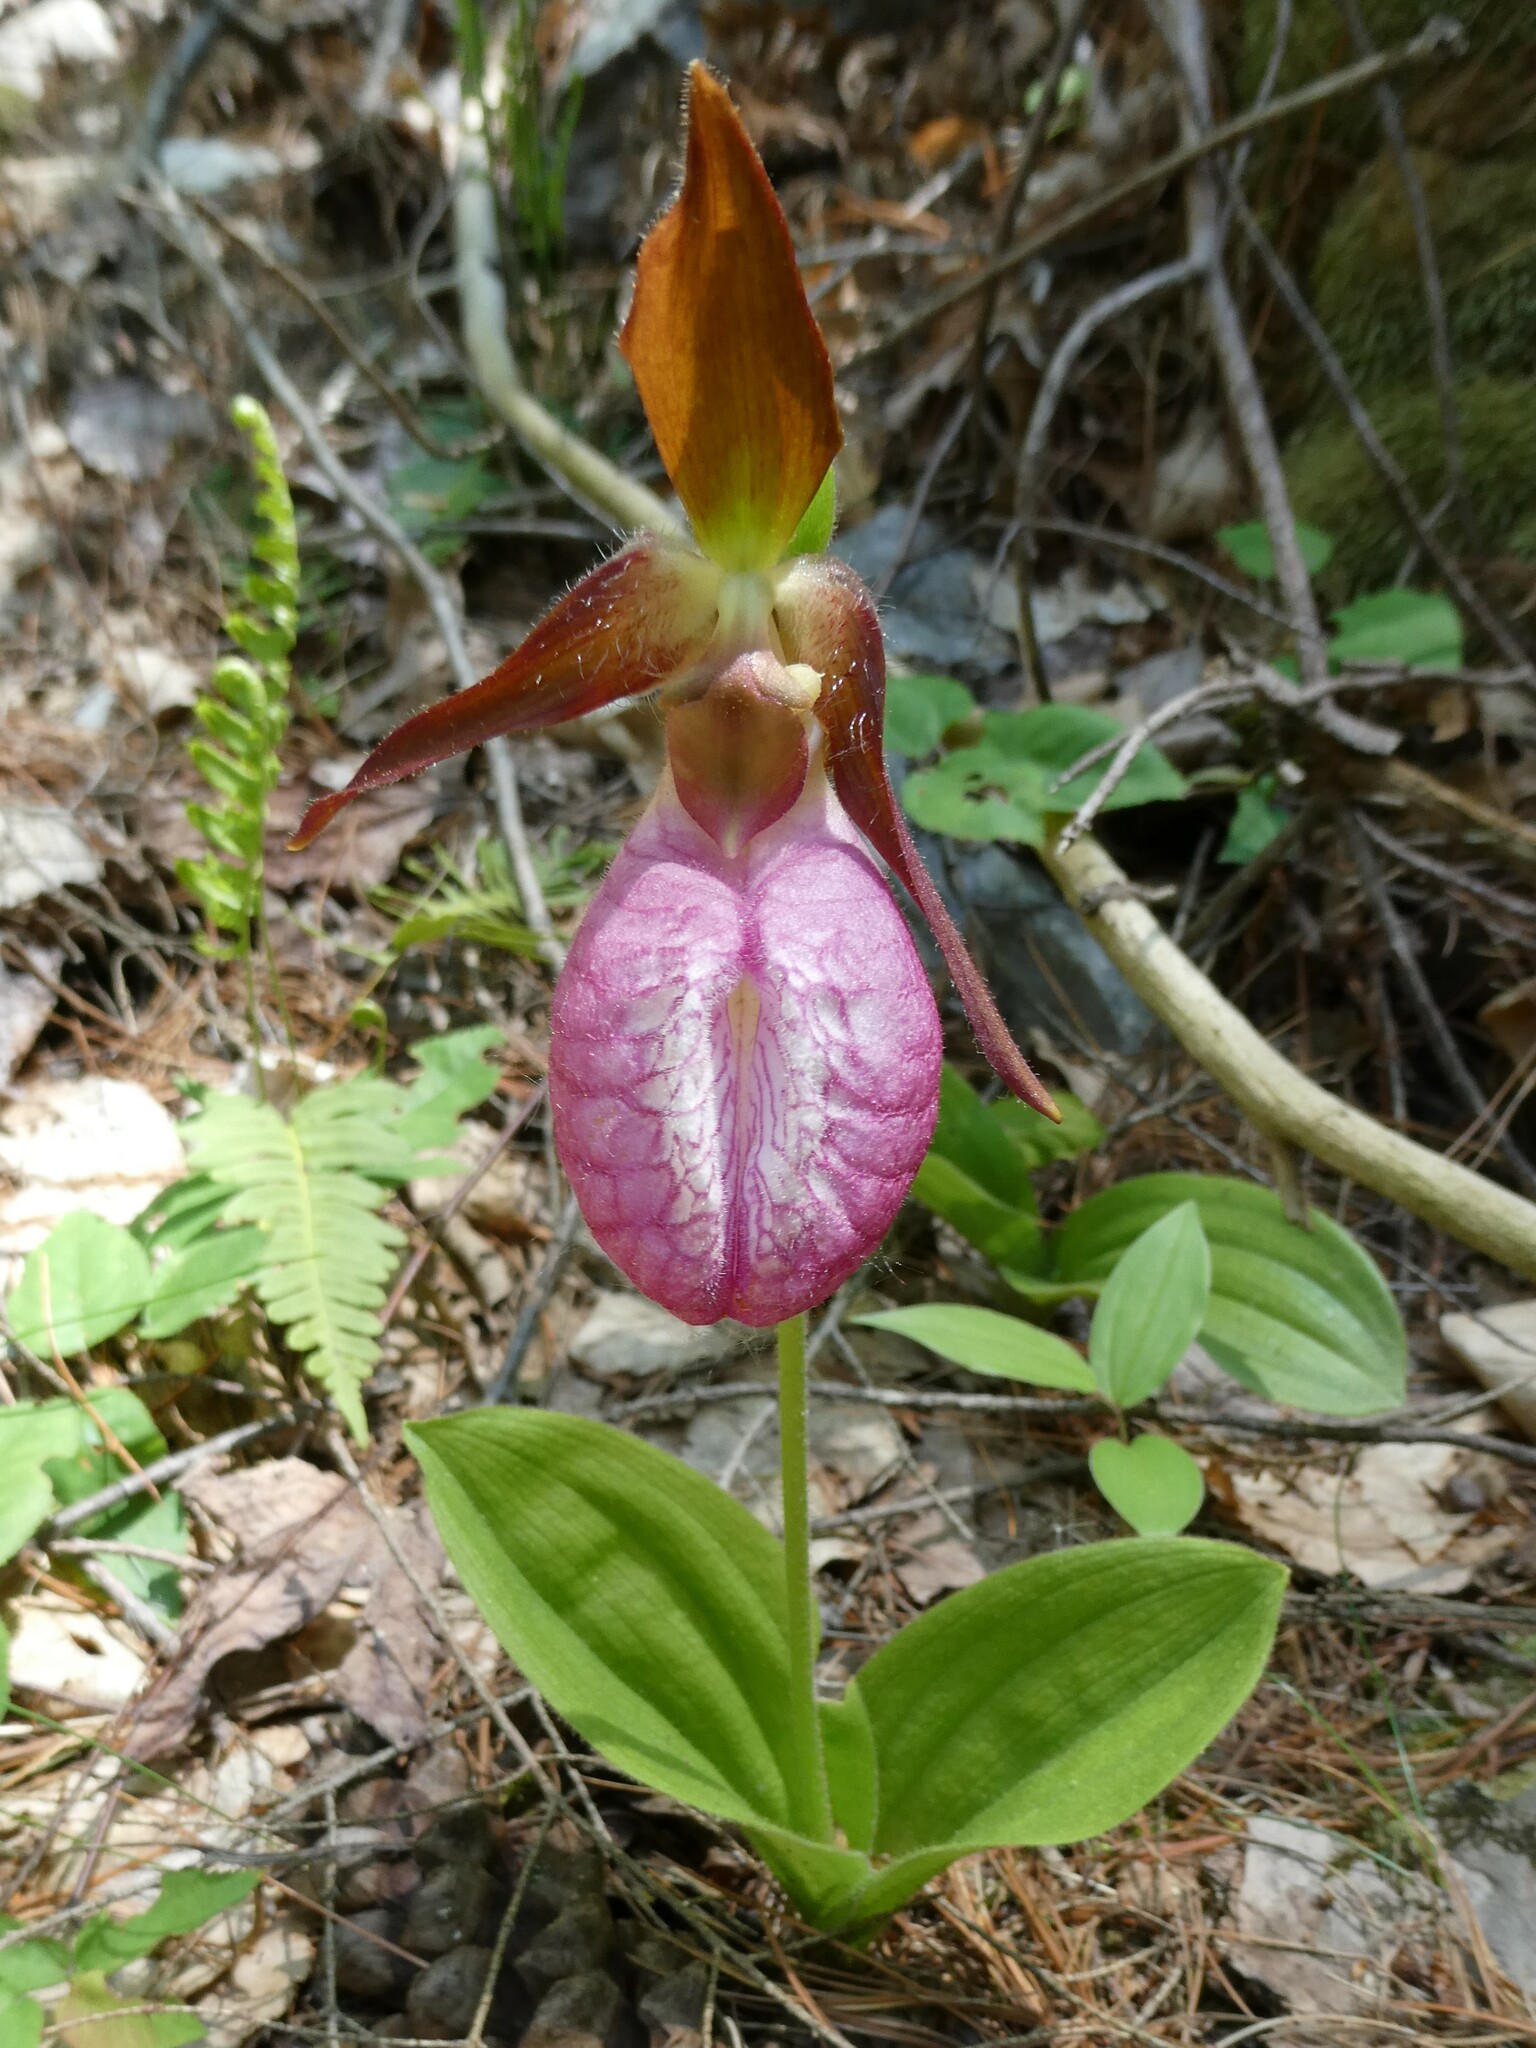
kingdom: Plantae
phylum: Tracheophyta
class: Liliopsida
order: Asparagales
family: Orchidaceae
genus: Cypripedium
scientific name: Cypripedium acaule
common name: Pink lady's-slipper
